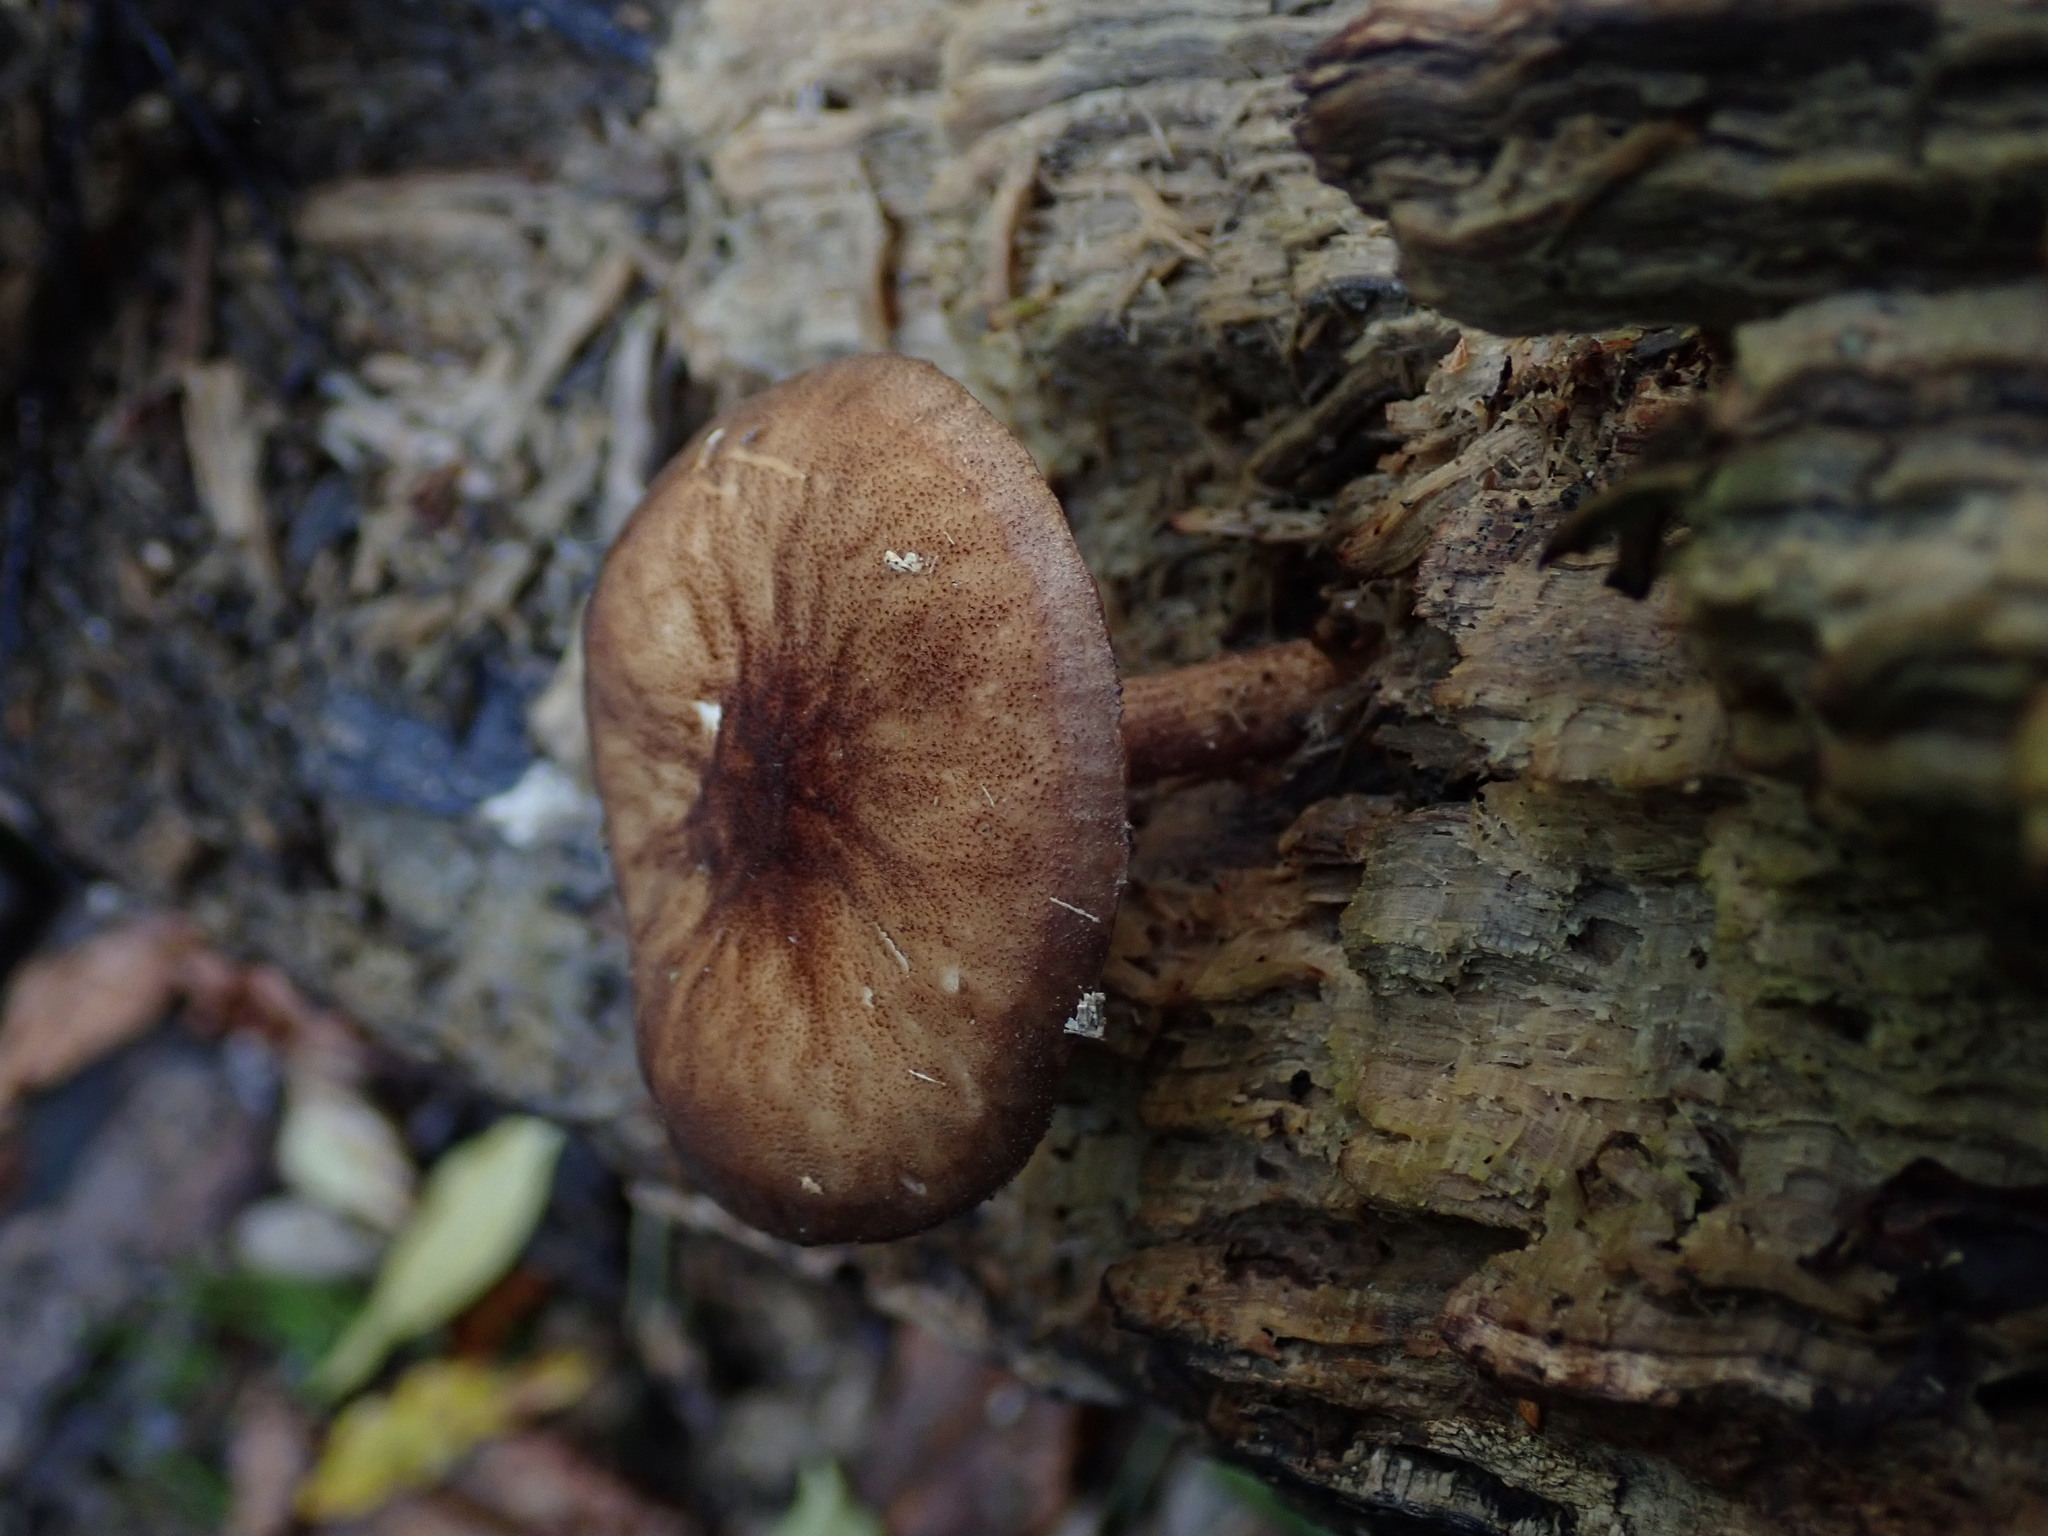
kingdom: Fungi
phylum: Basidiomycota
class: Agaricomycetes
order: Agaricales
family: Pluteaceae
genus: Pluteus
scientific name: Pluteus umbrosus
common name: Velvet shield
